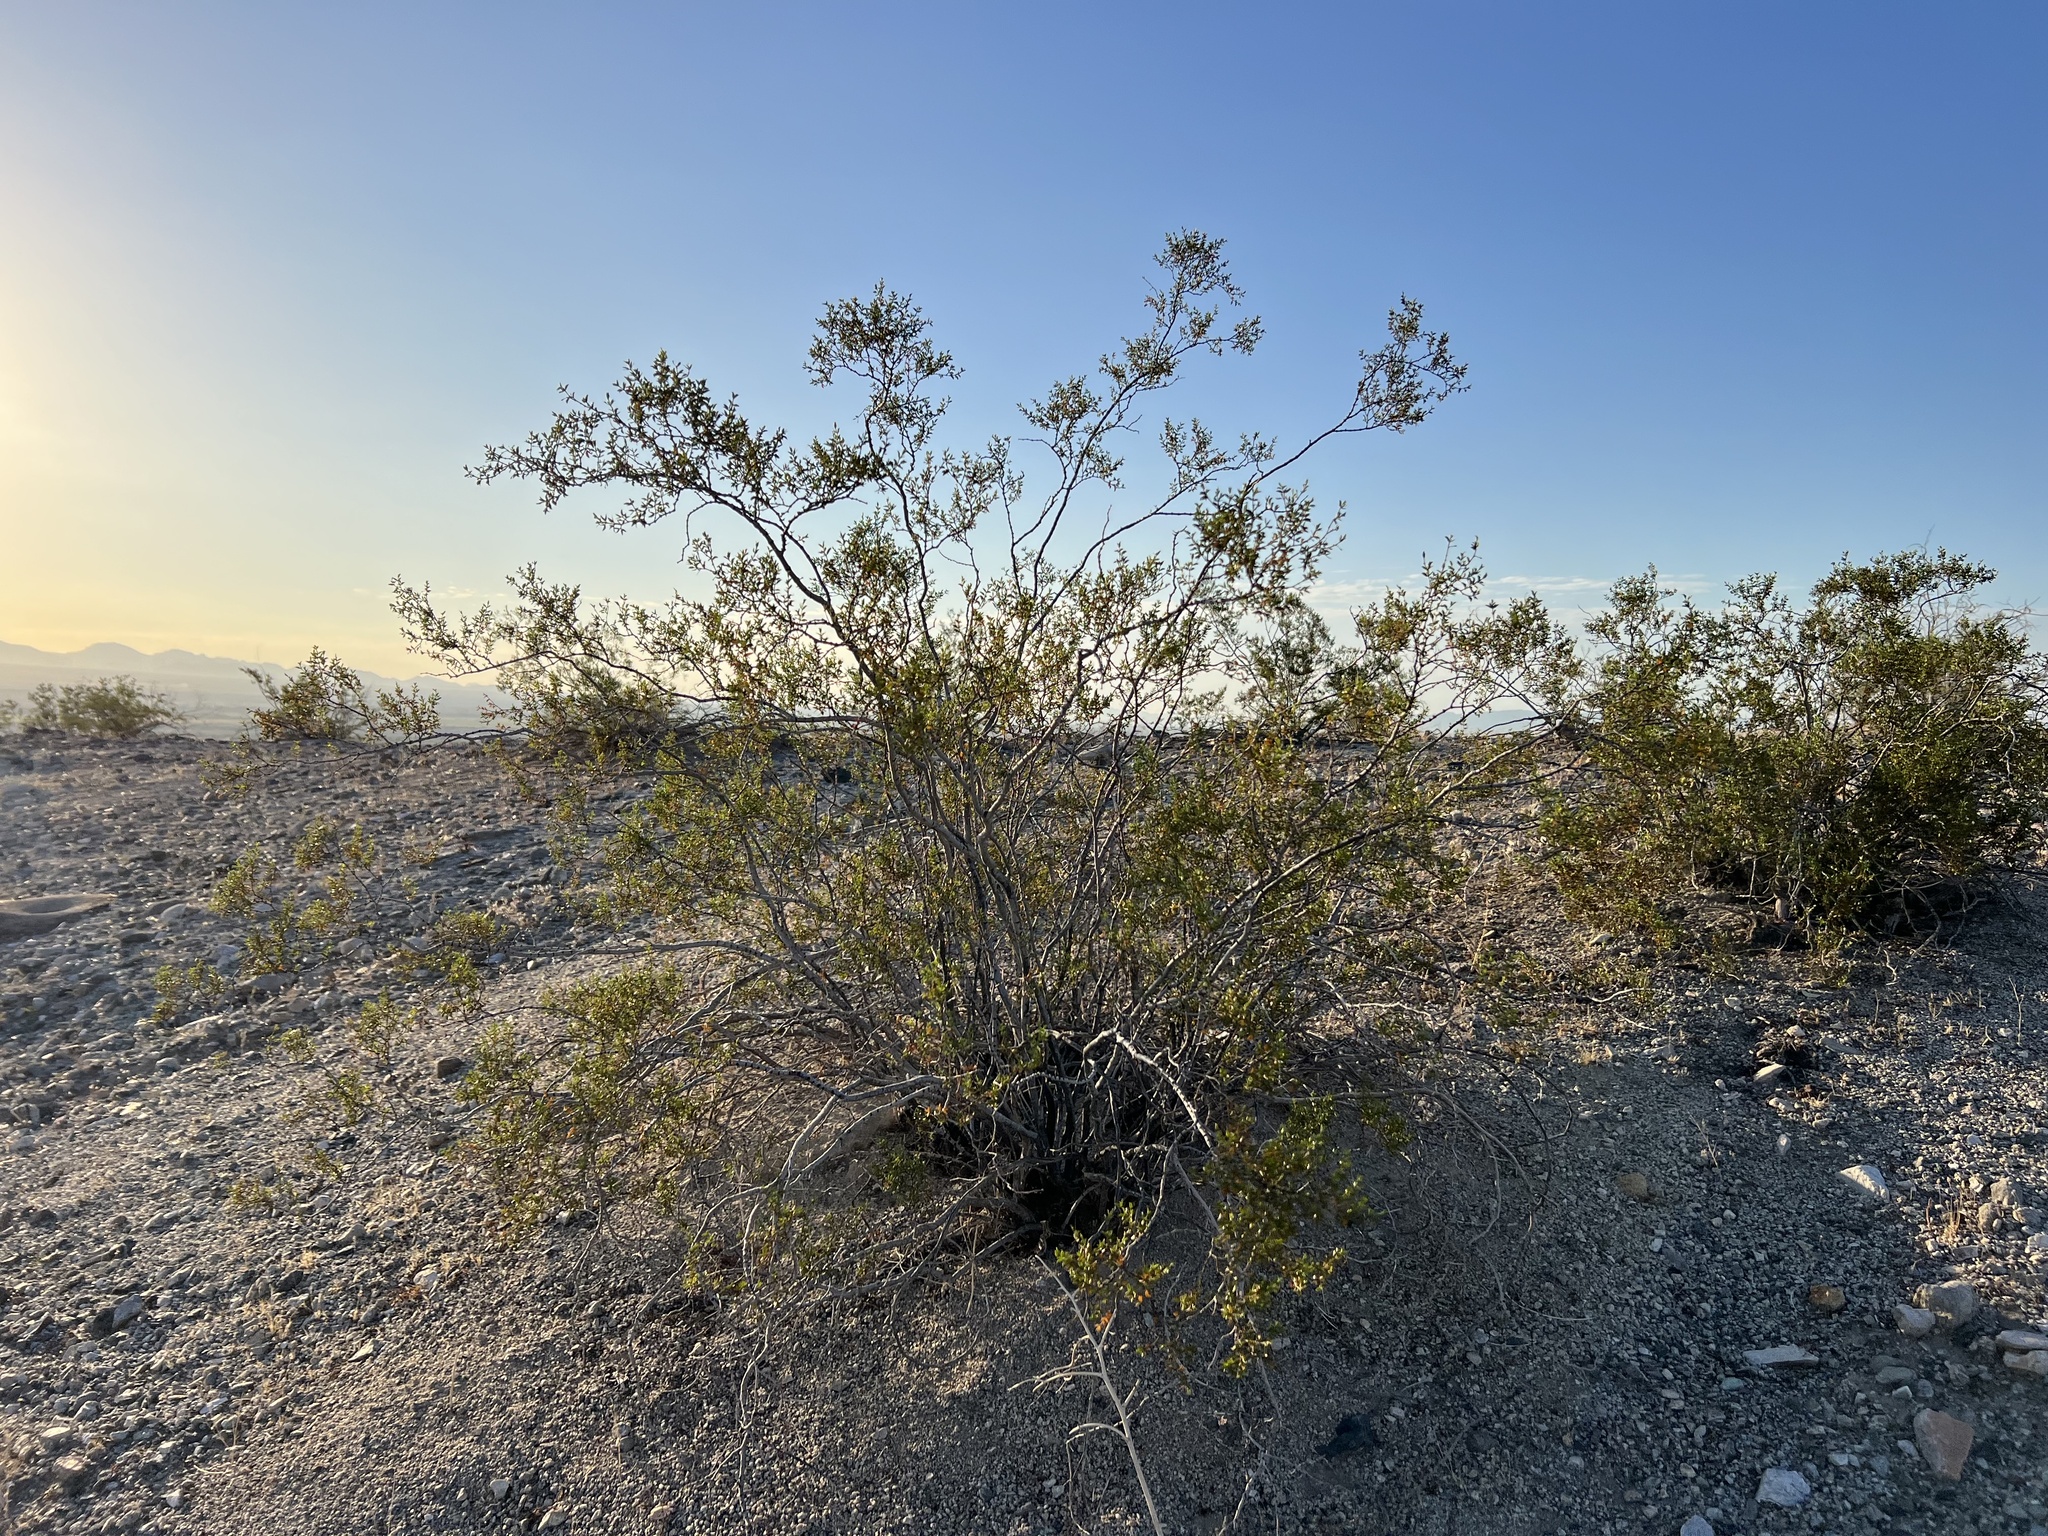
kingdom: Plantae
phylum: Tracheophyta
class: Magnoliopsida
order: Zygophyllales
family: Zygophyllaceae
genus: Larrea
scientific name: Larrea tridentata
